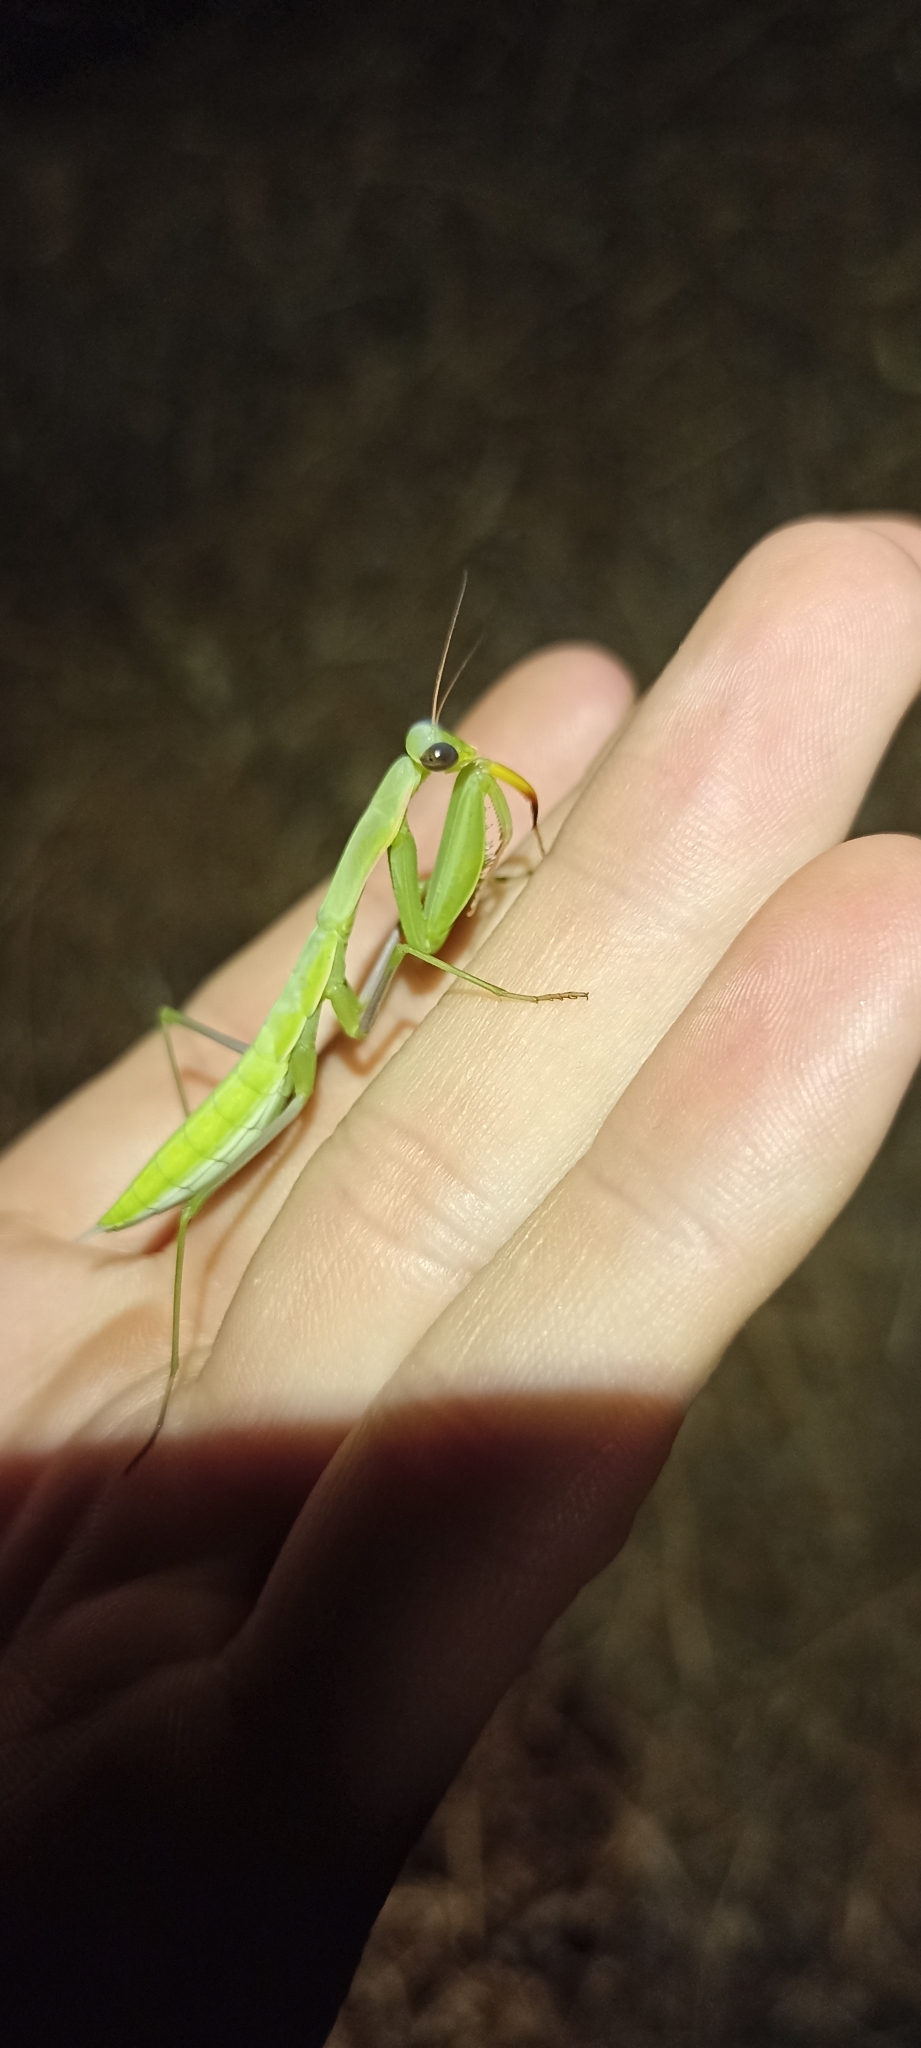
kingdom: Animalia
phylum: Arthropoda
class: Insecta
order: Mantodea
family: Mantidae
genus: Mantis
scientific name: Mantis religiosa
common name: Praying mantis
